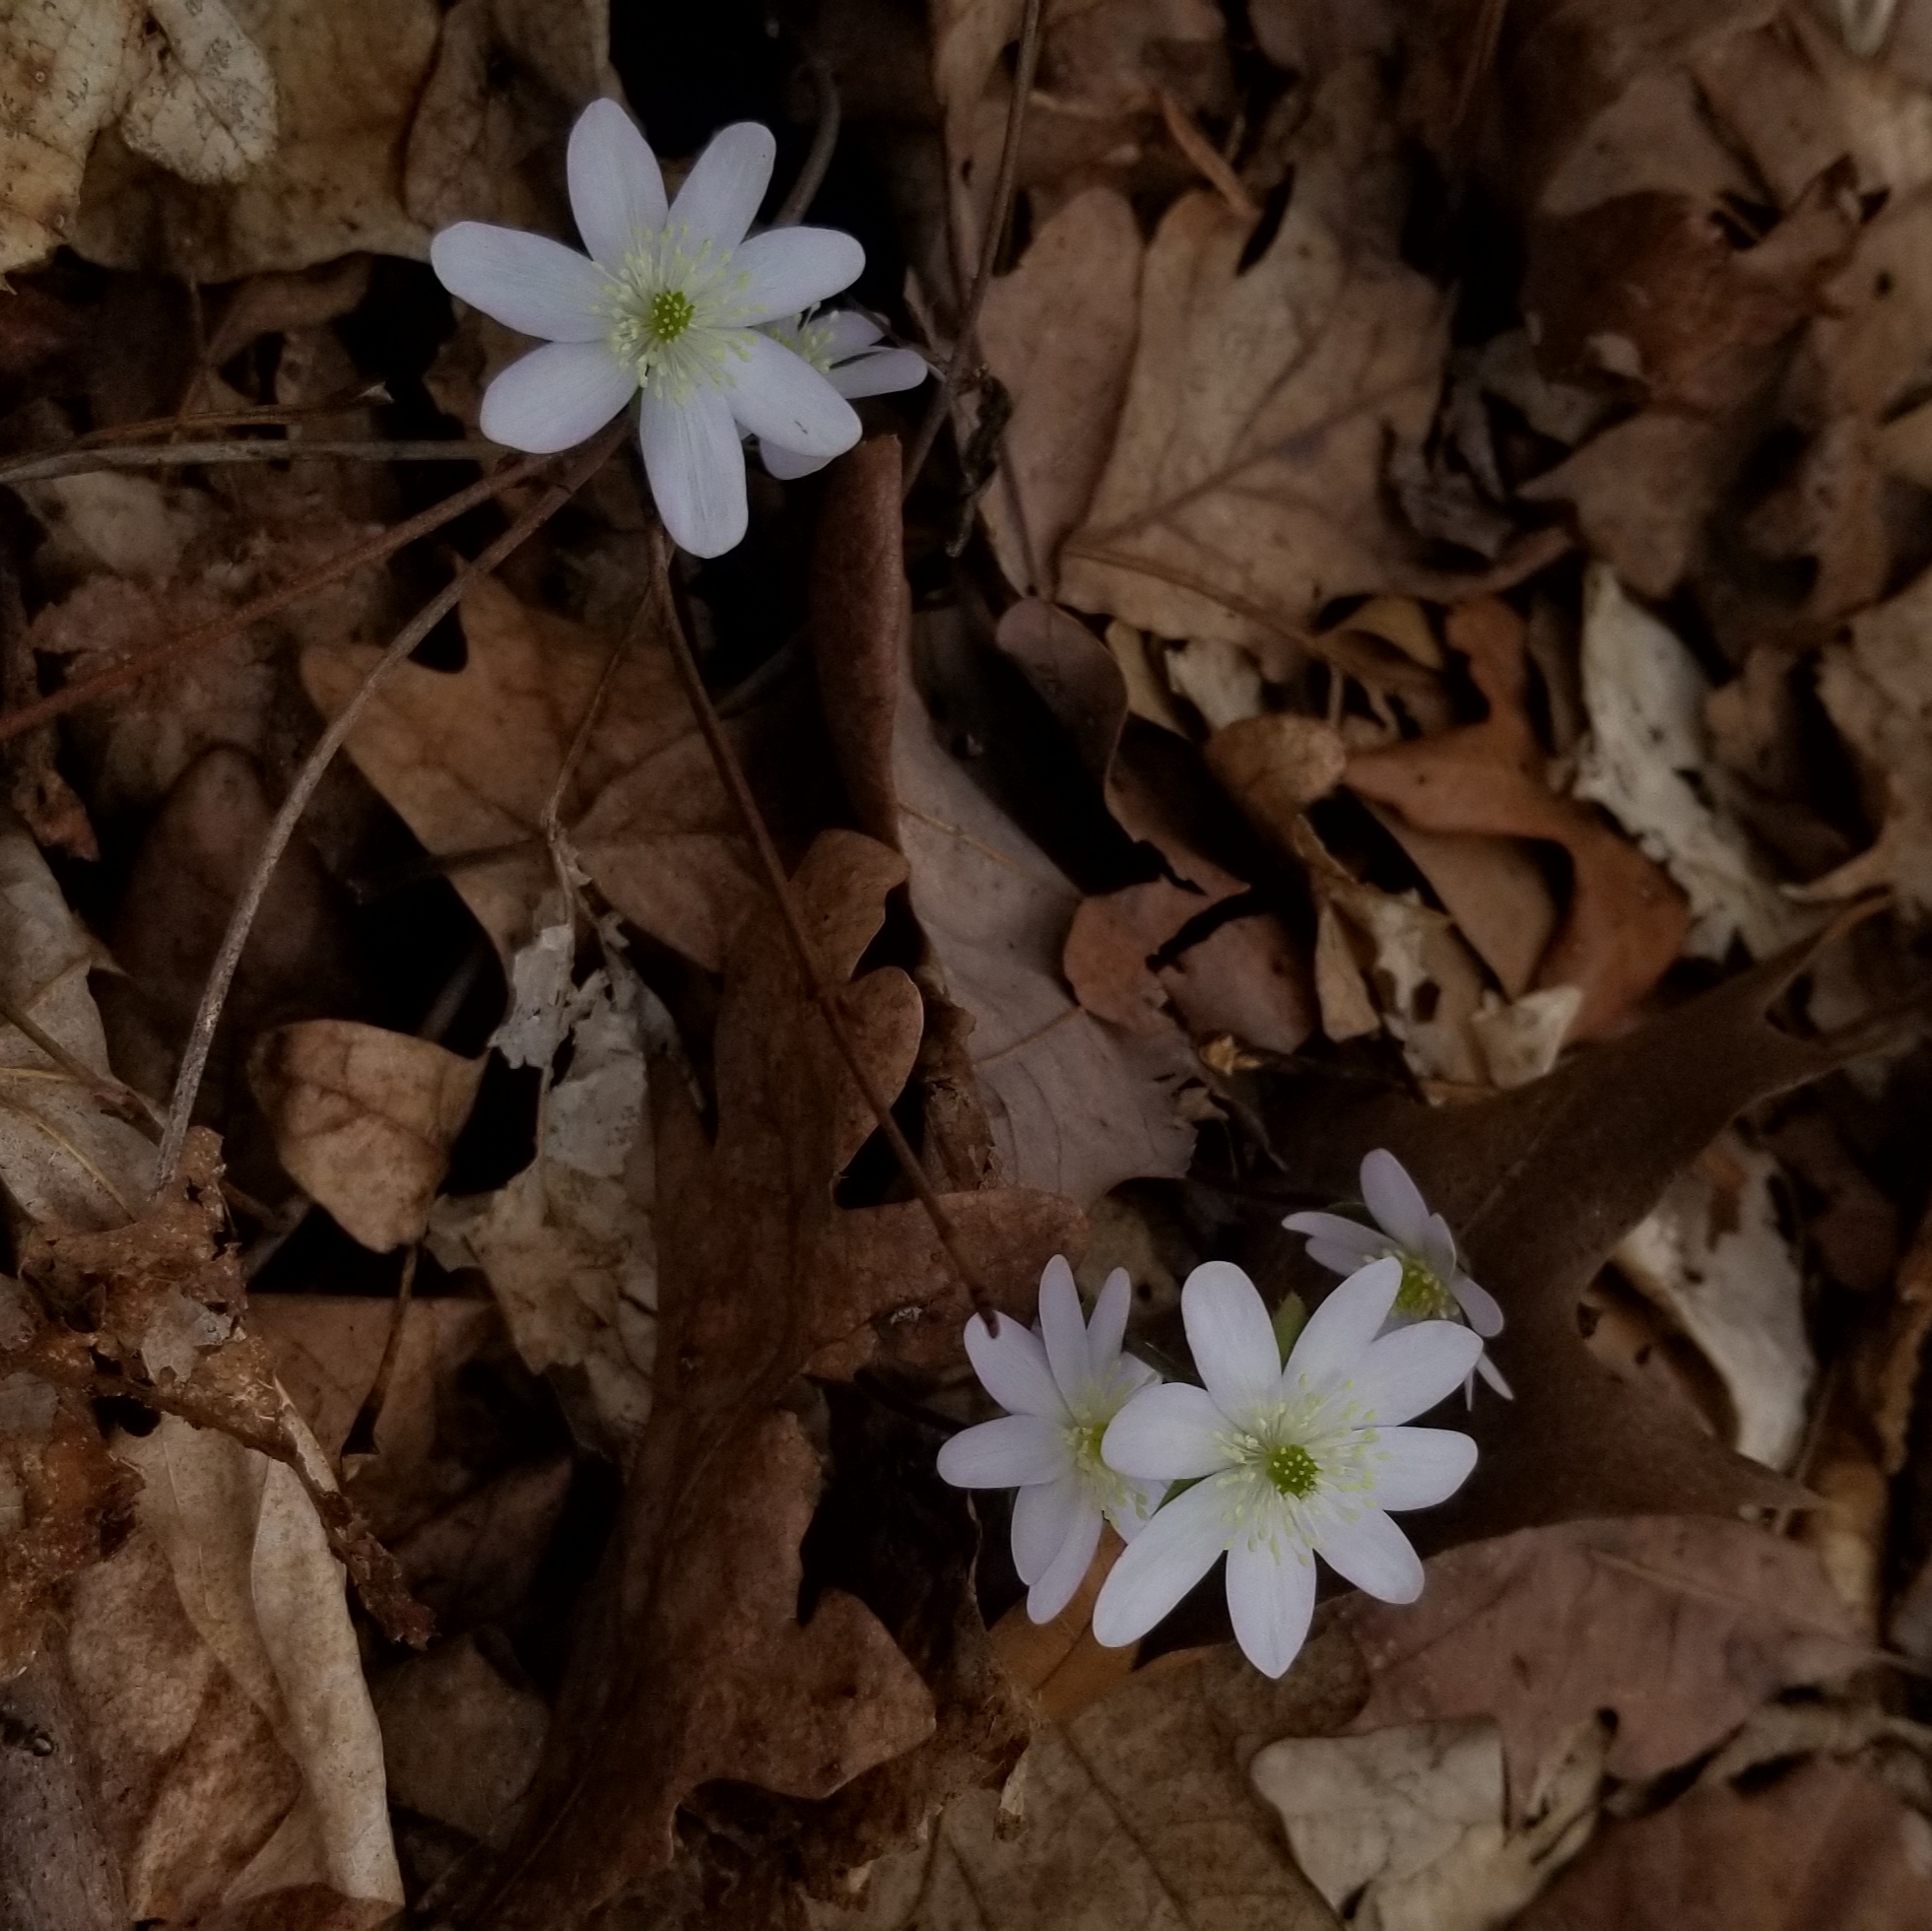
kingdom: Plantae
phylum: Tracheophyta
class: Magnoliopsida
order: Ranunculales
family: Ranunculaceae
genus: Hepatica
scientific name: Hepatica acutiloba
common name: Sharp-lobed hepatica
